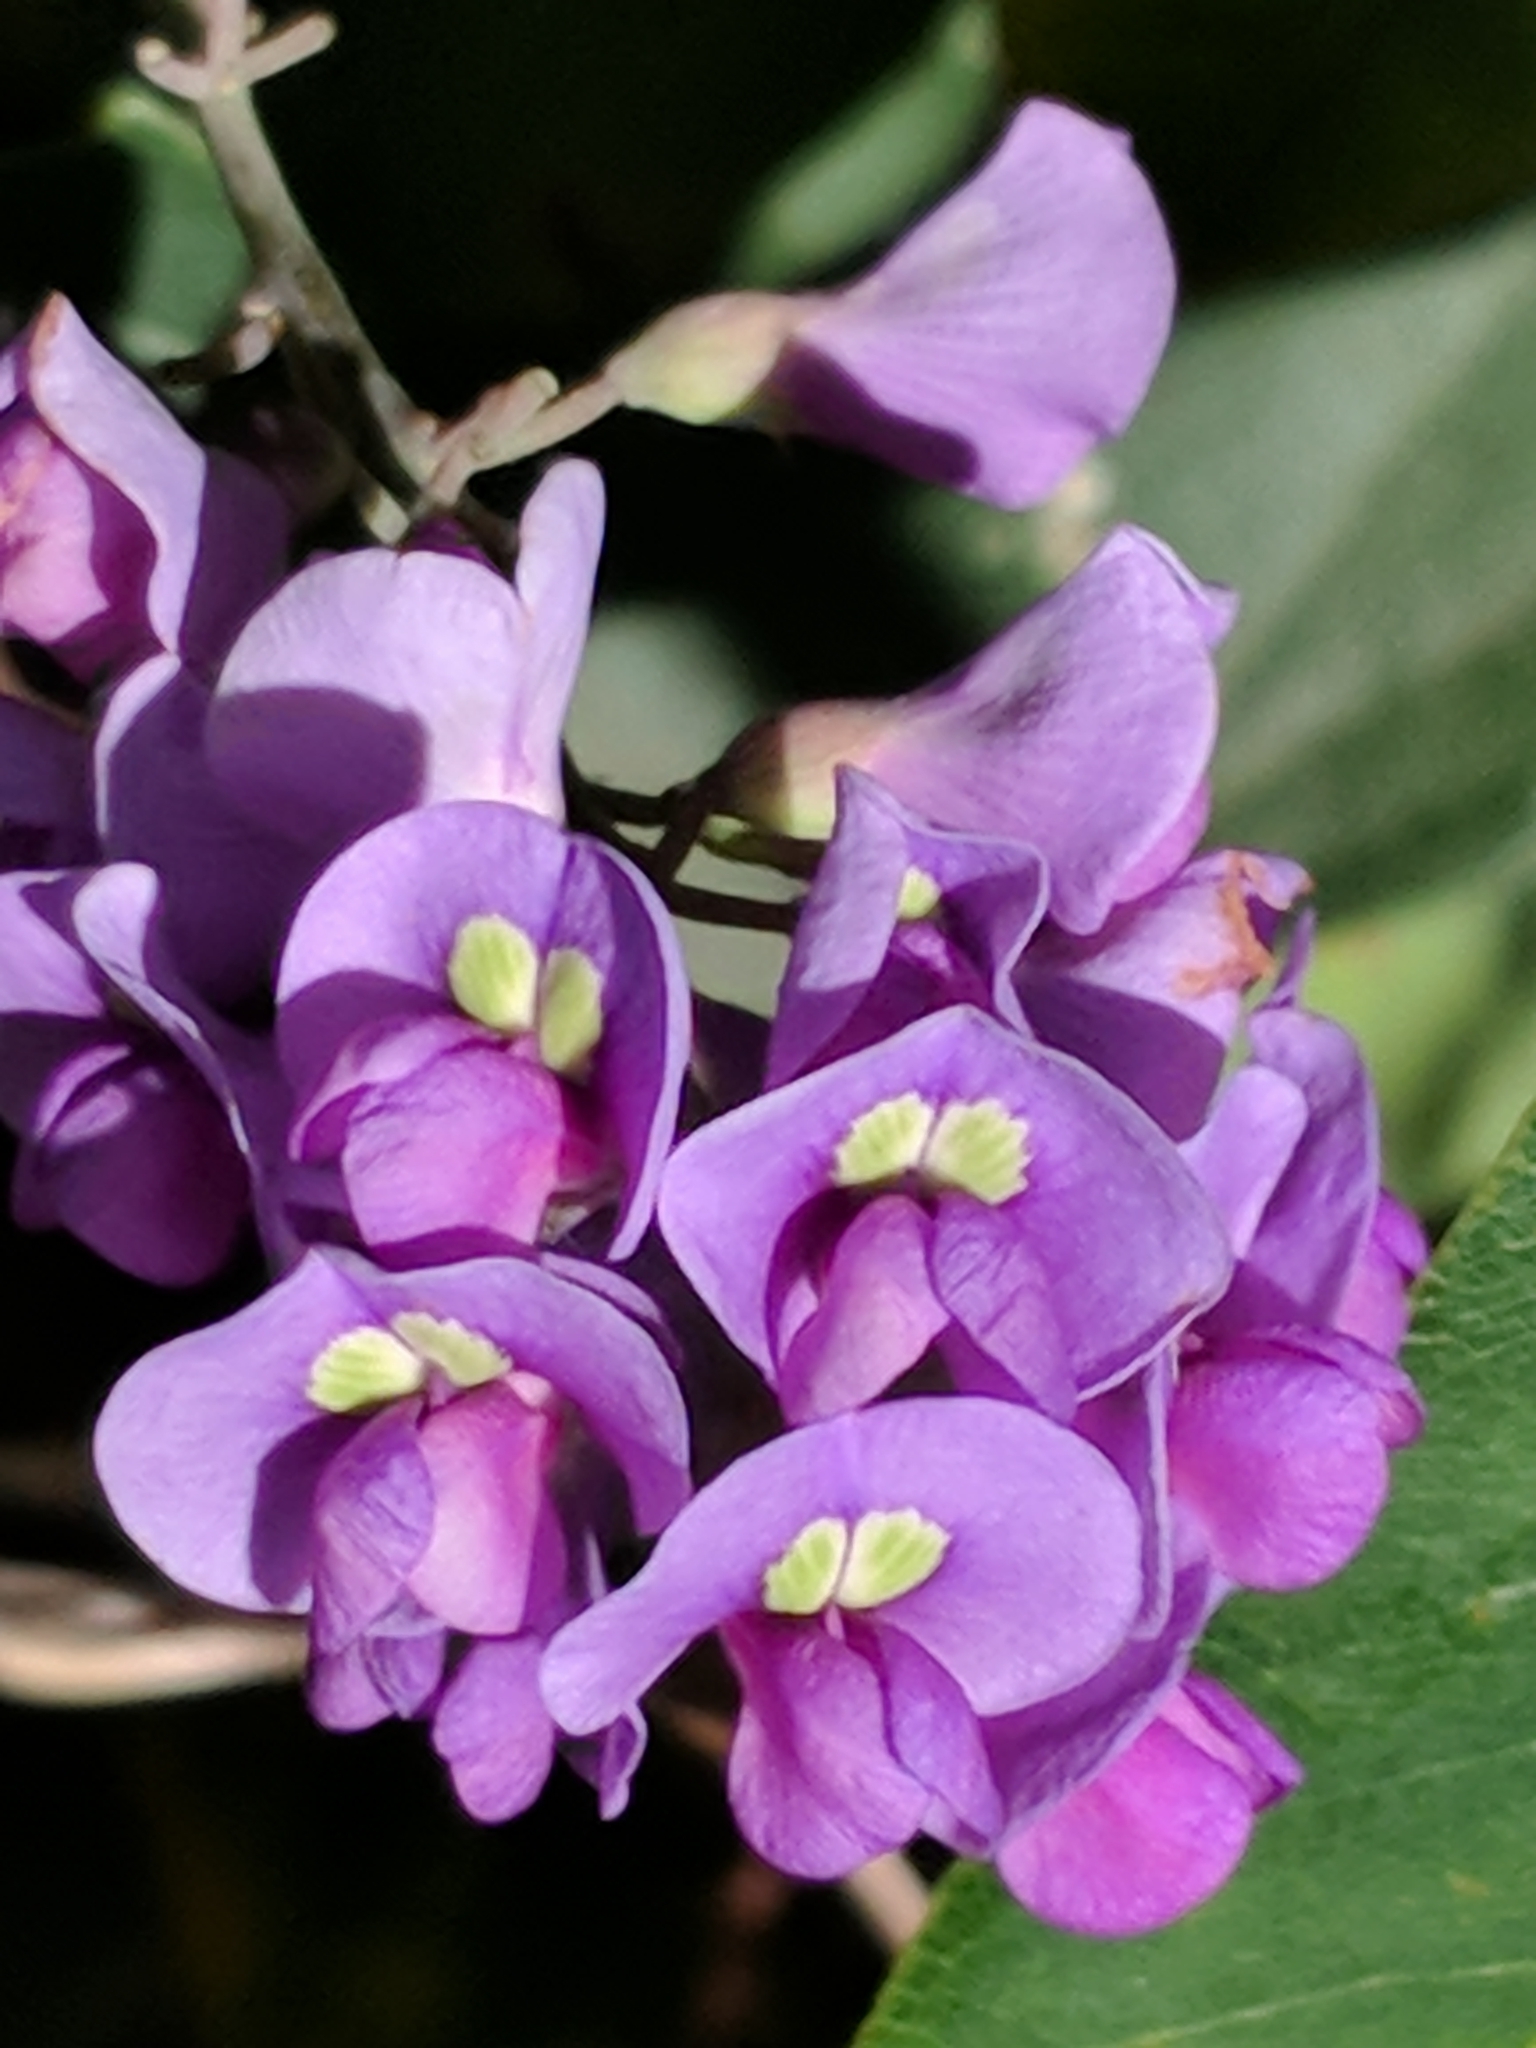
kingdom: Plantae
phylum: Tracheophyta
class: Magnoliopsida
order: Fabales
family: Fabaceae
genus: Hardenbergia
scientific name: Hardenbergia violacea
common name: Coral-pea
